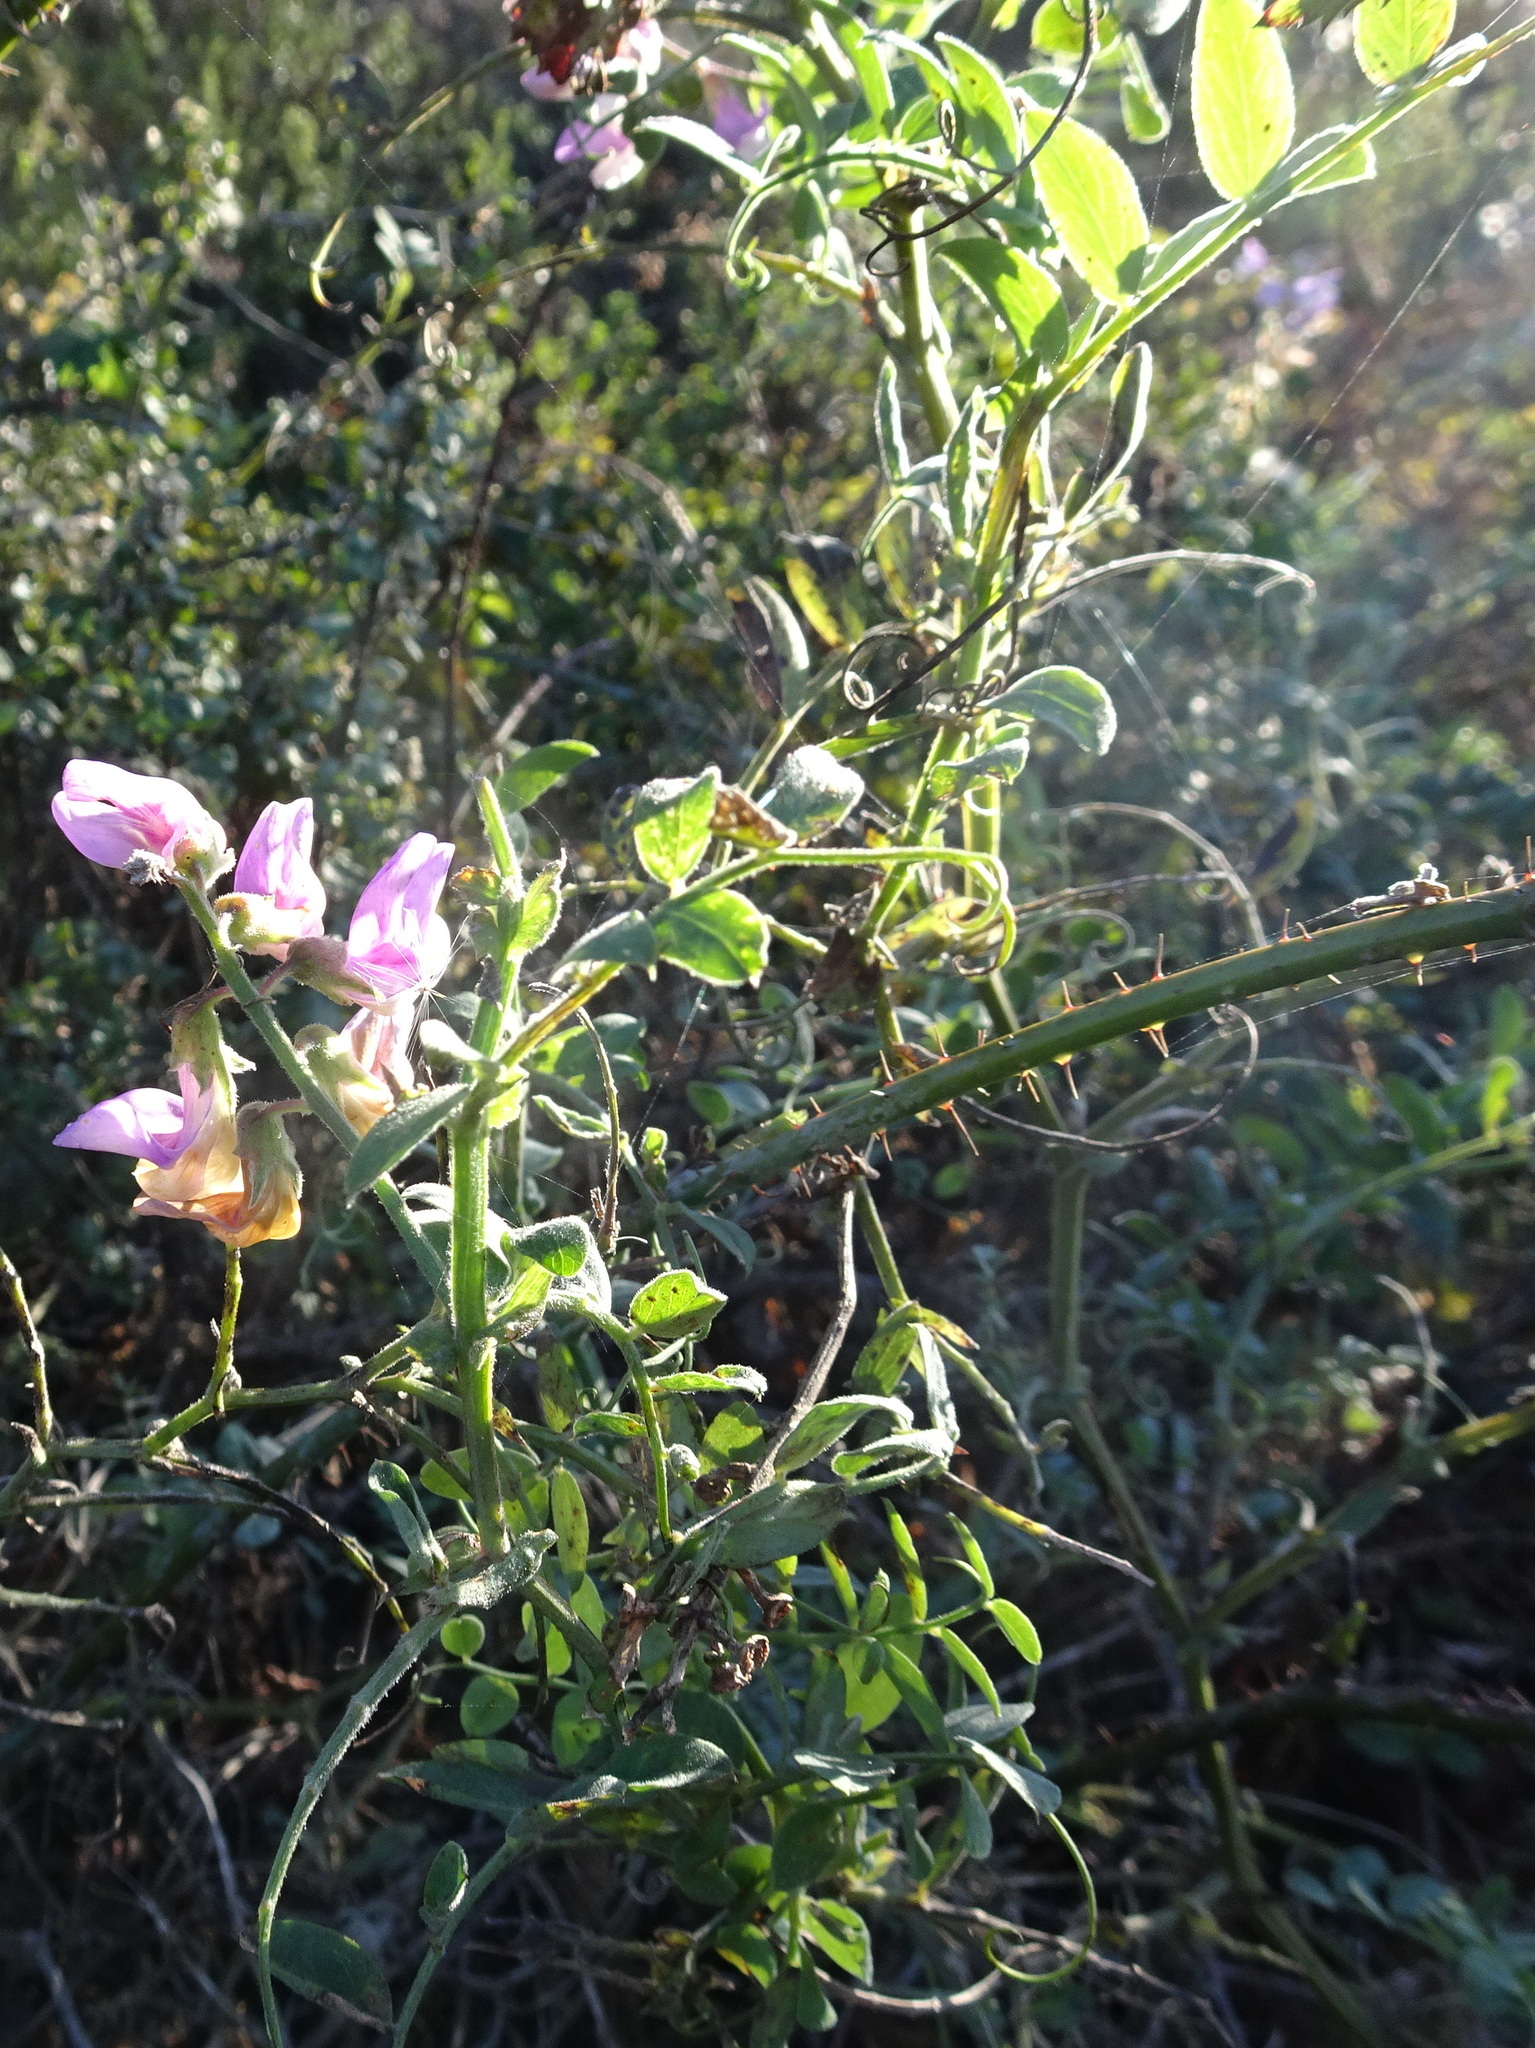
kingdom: Plantae
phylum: Tracheophyta
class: Magnoliopsida
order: Fabales
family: Fabaceae
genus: Lathyrus
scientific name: Lathyrus vestitus
